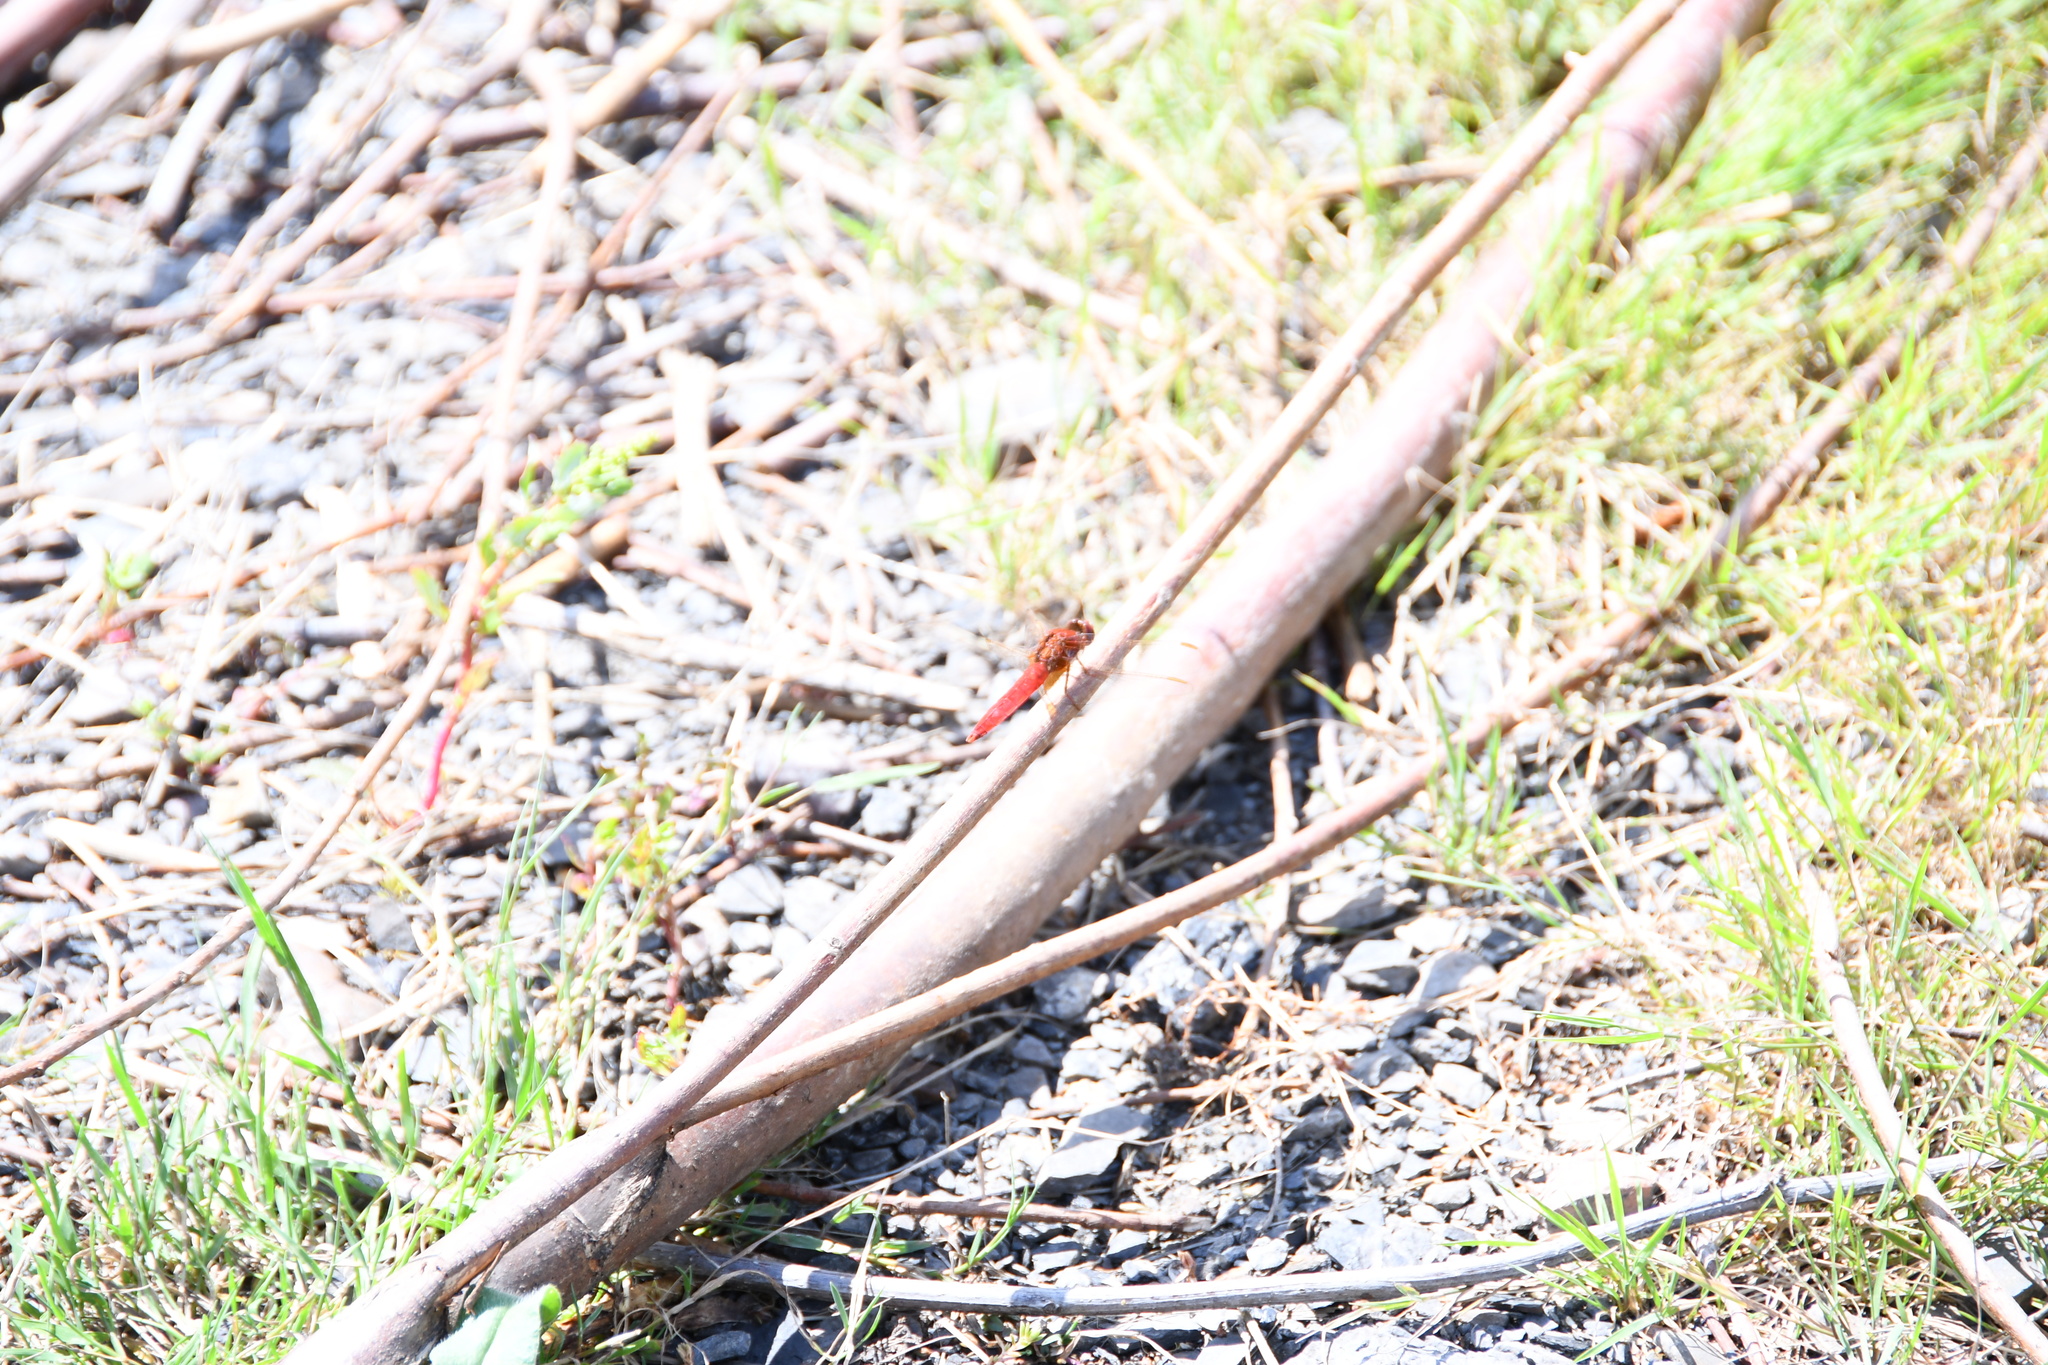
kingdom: Animalia
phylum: Arthropoda
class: Insecta
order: Odonata
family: Libellulidae
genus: Crocothemis
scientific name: Crocothemis erythraea
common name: Scarlet dragonfly
